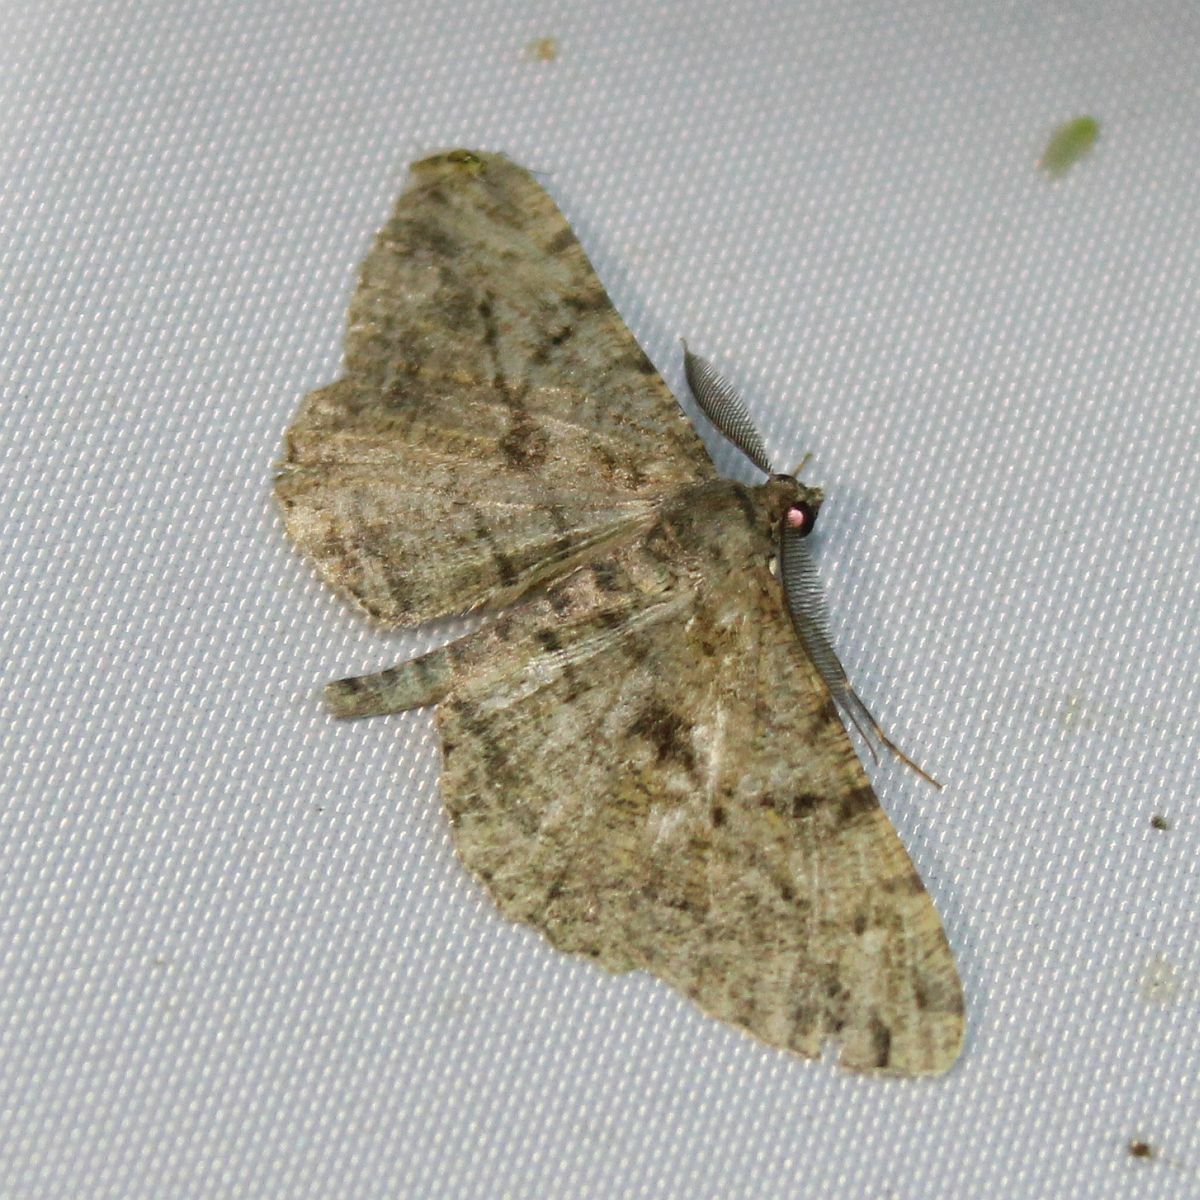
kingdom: Animalia
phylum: Arthropoda
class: Insecta
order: Lepidoptera
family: Geometridae
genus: Peribatodes
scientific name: Peribatodes rhomboidaria
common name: Willow beauty
